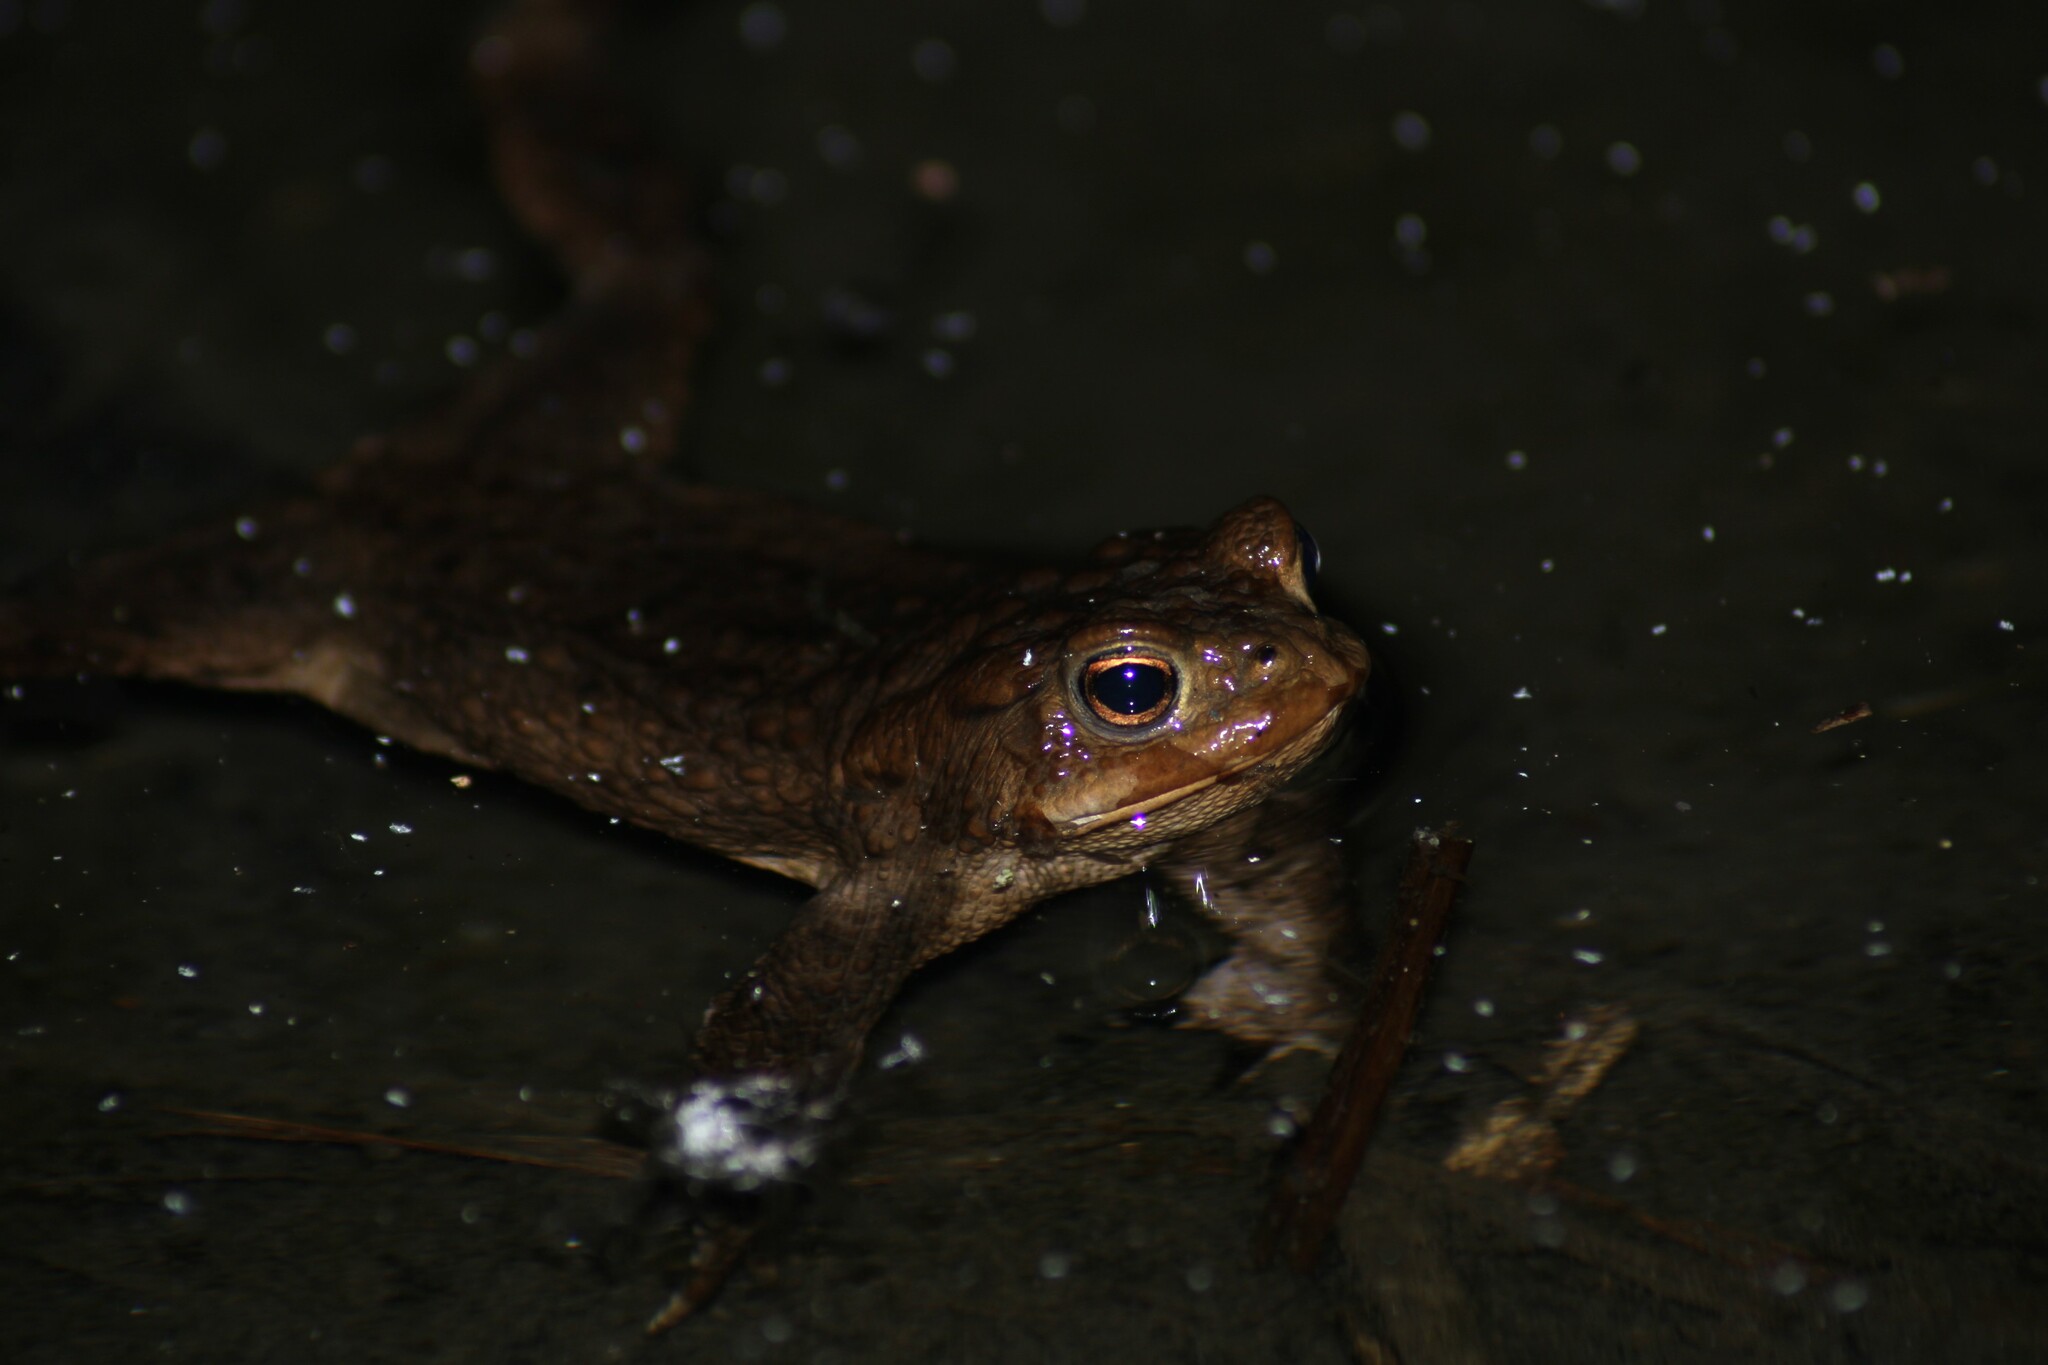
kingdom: Animalia
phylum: Chordata
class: Amphibia
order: Anura
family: Bufonidae
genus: Bufo
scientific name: Bufo bufo
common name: Common toad
